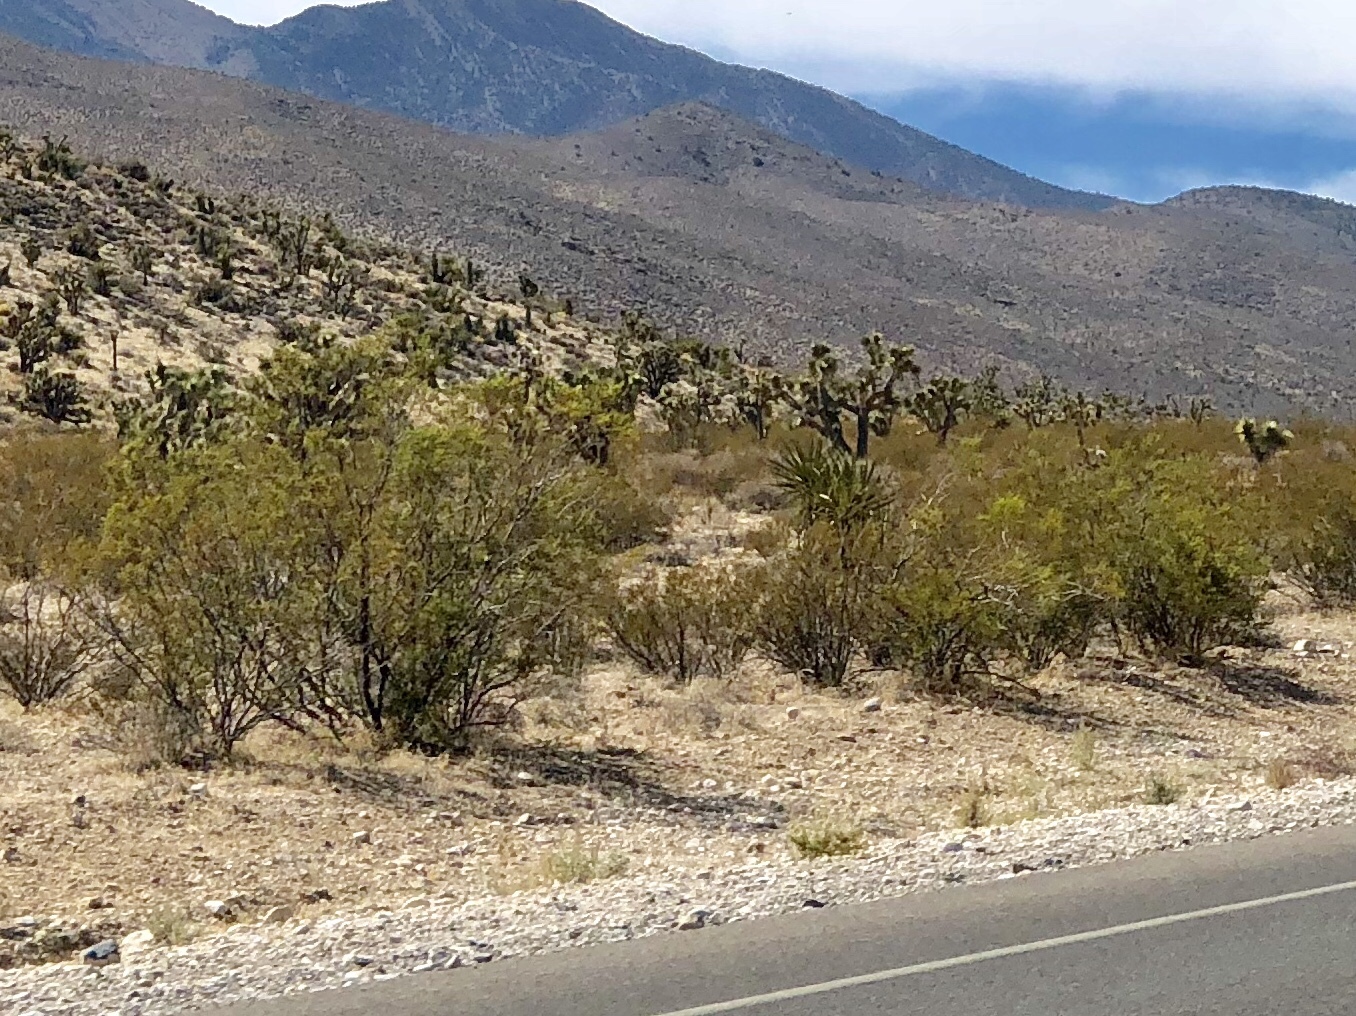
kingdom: Plantae
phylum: Tracheophyta
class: Magnoliopsida
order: Zygophyllales
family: Zygophyllaceae
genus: Larrea
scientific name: Larrea tridentata
